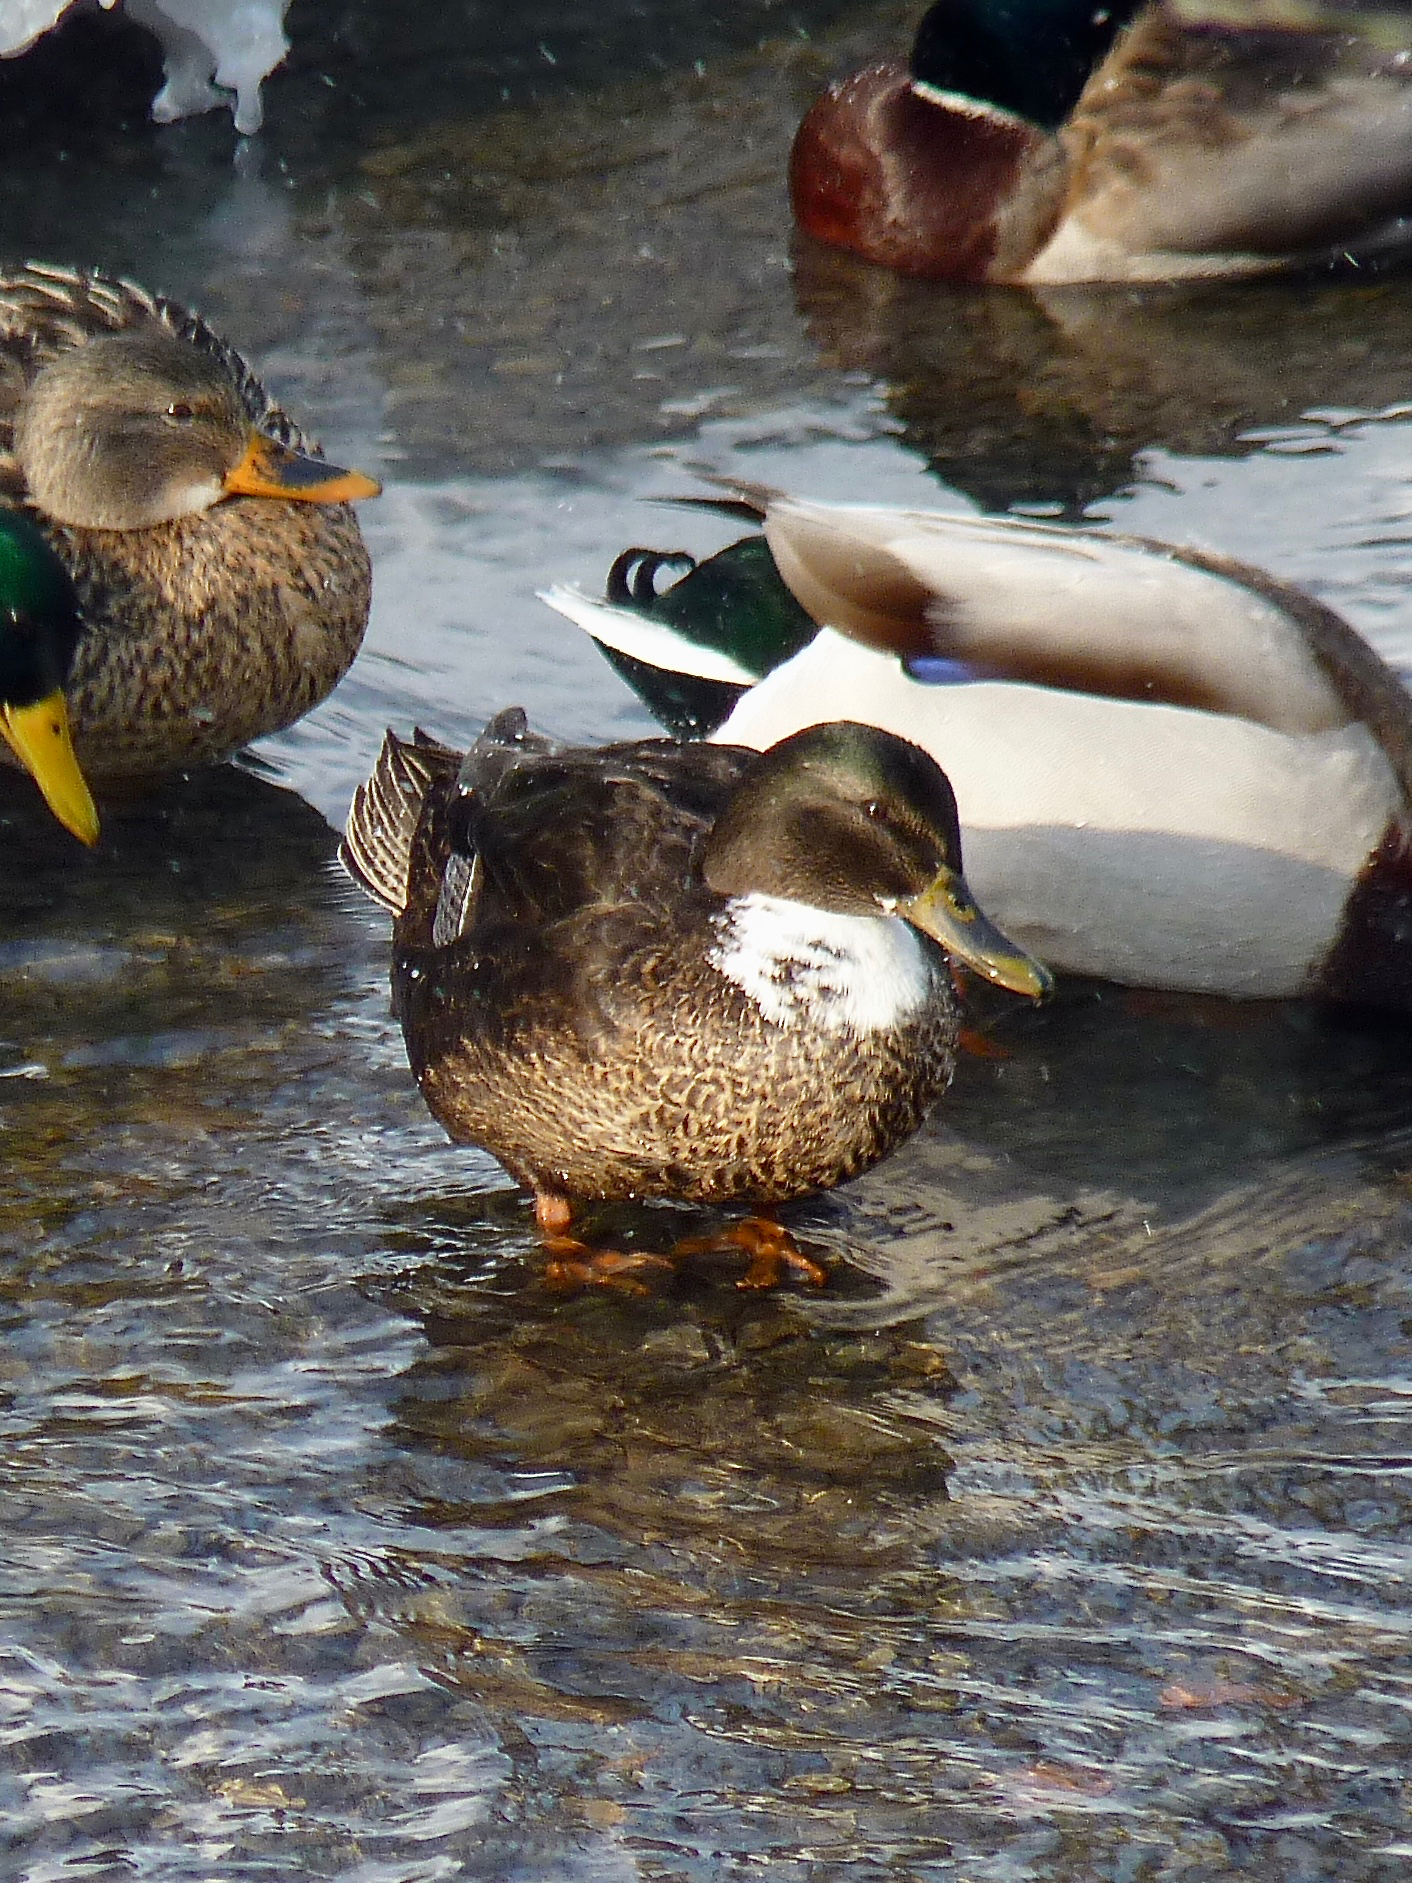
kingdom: Animalia
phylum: Chordata
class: Aves
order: Anseriformes
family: Anatidae
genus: Anas
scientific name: Anas platyrhynchos
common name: Mallard
